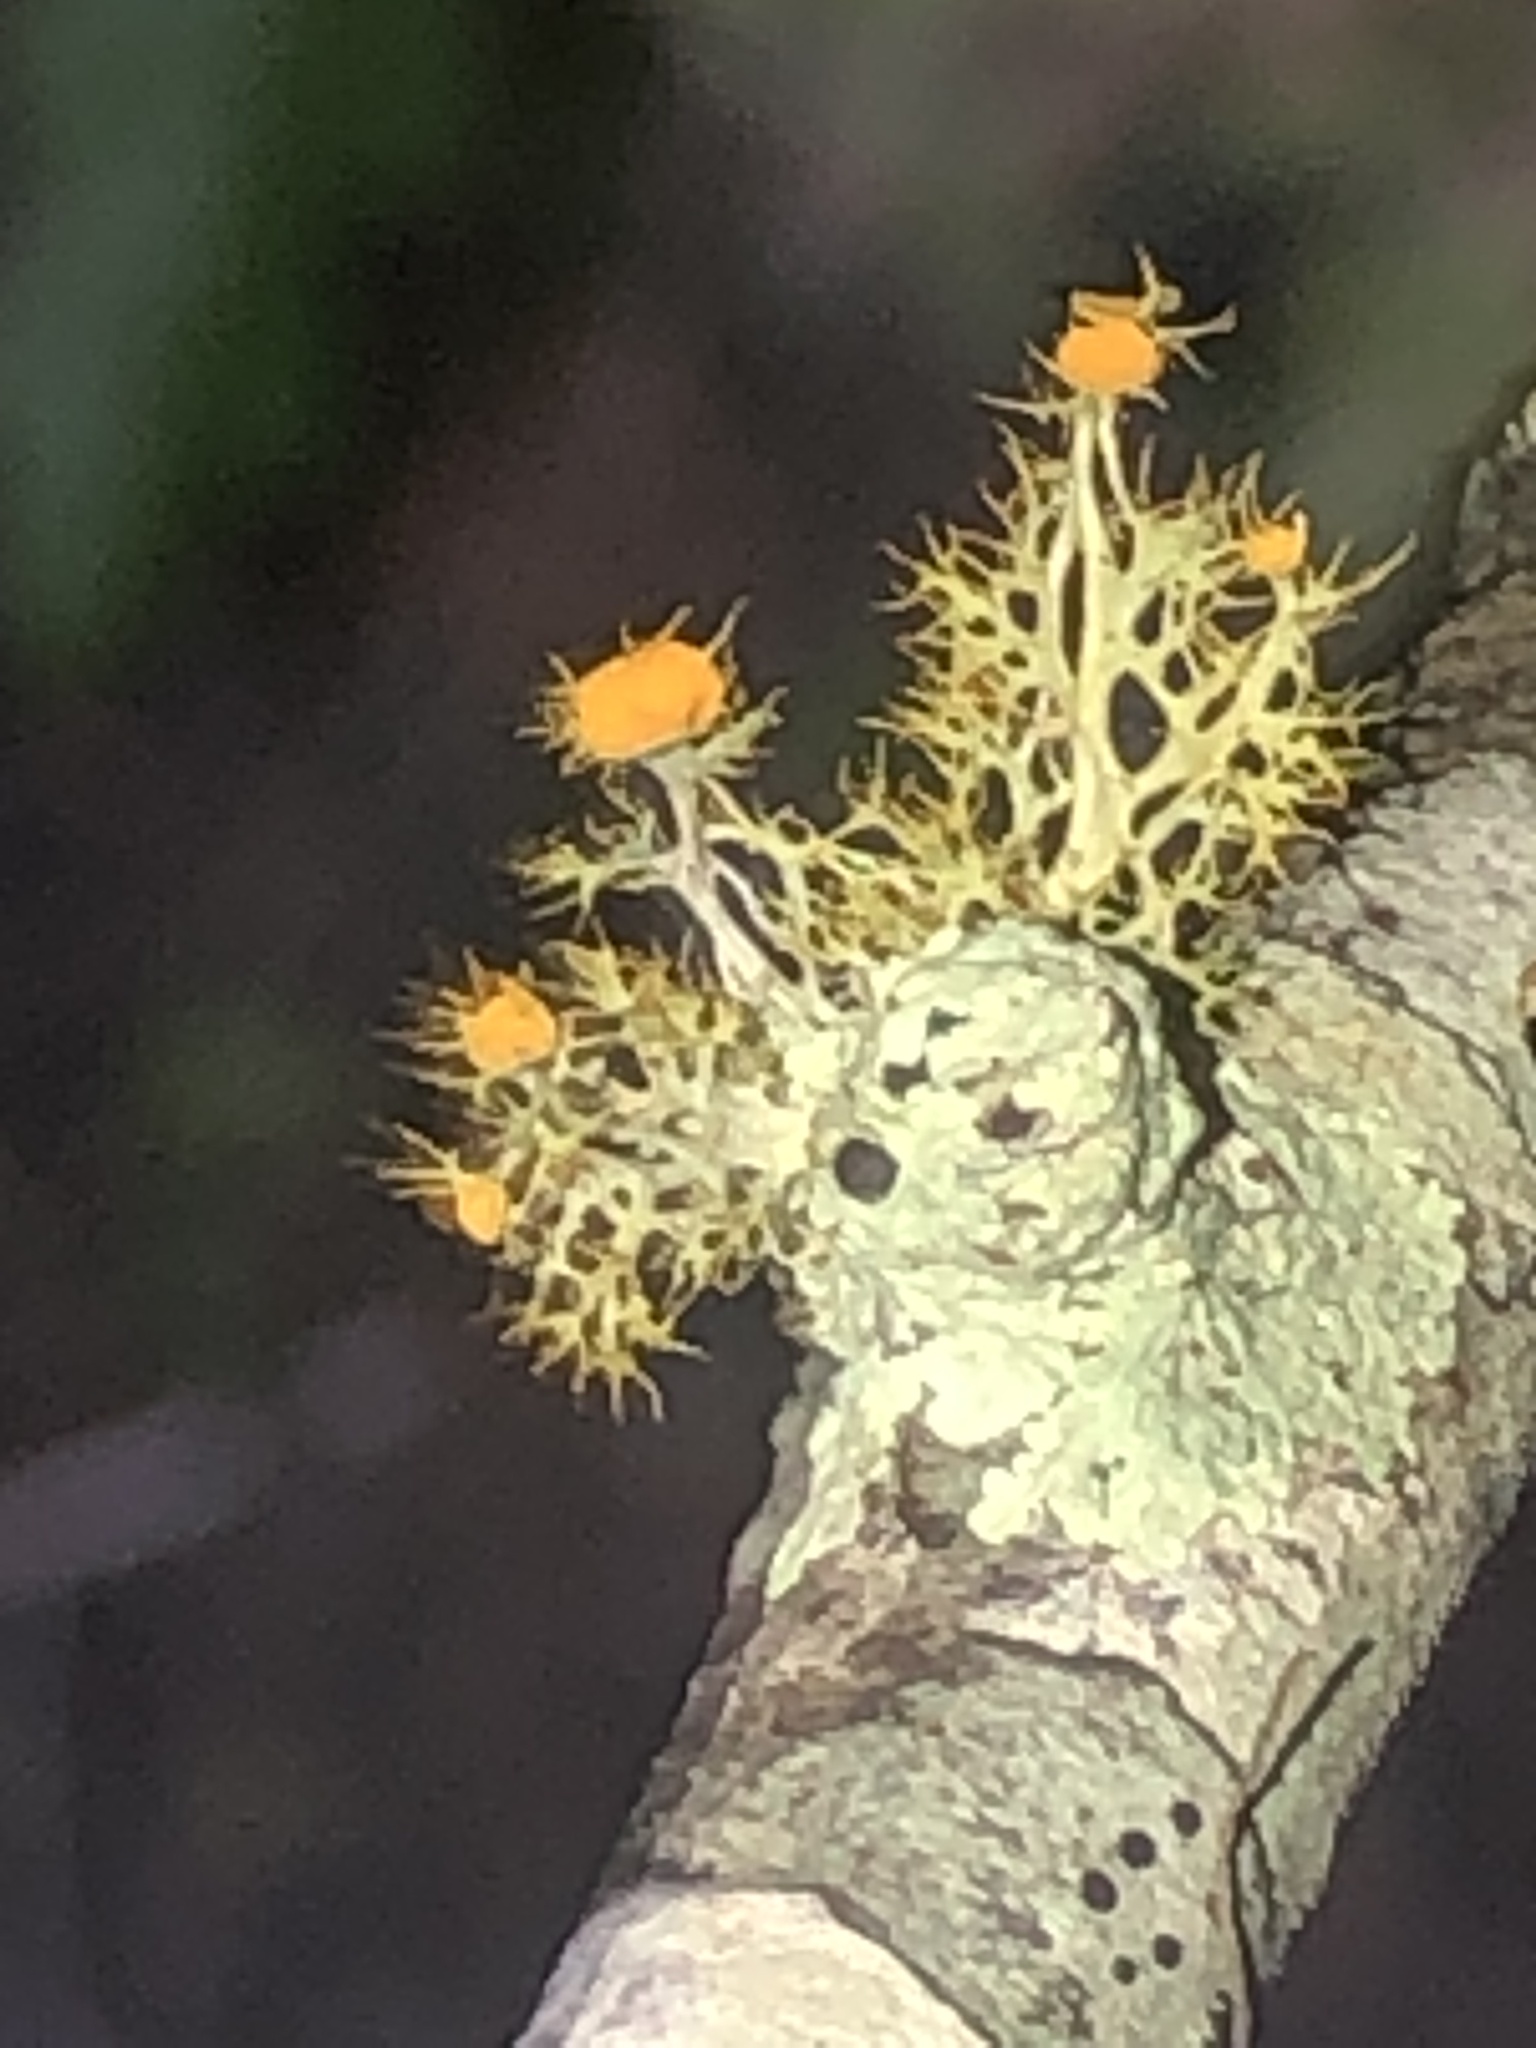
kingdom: Fungi
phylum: Ascomycota
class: Lecanoromycetes
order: Teloschistales
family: Teloschistaceae
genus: Niorma
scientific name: Niorma chrysophthalma
